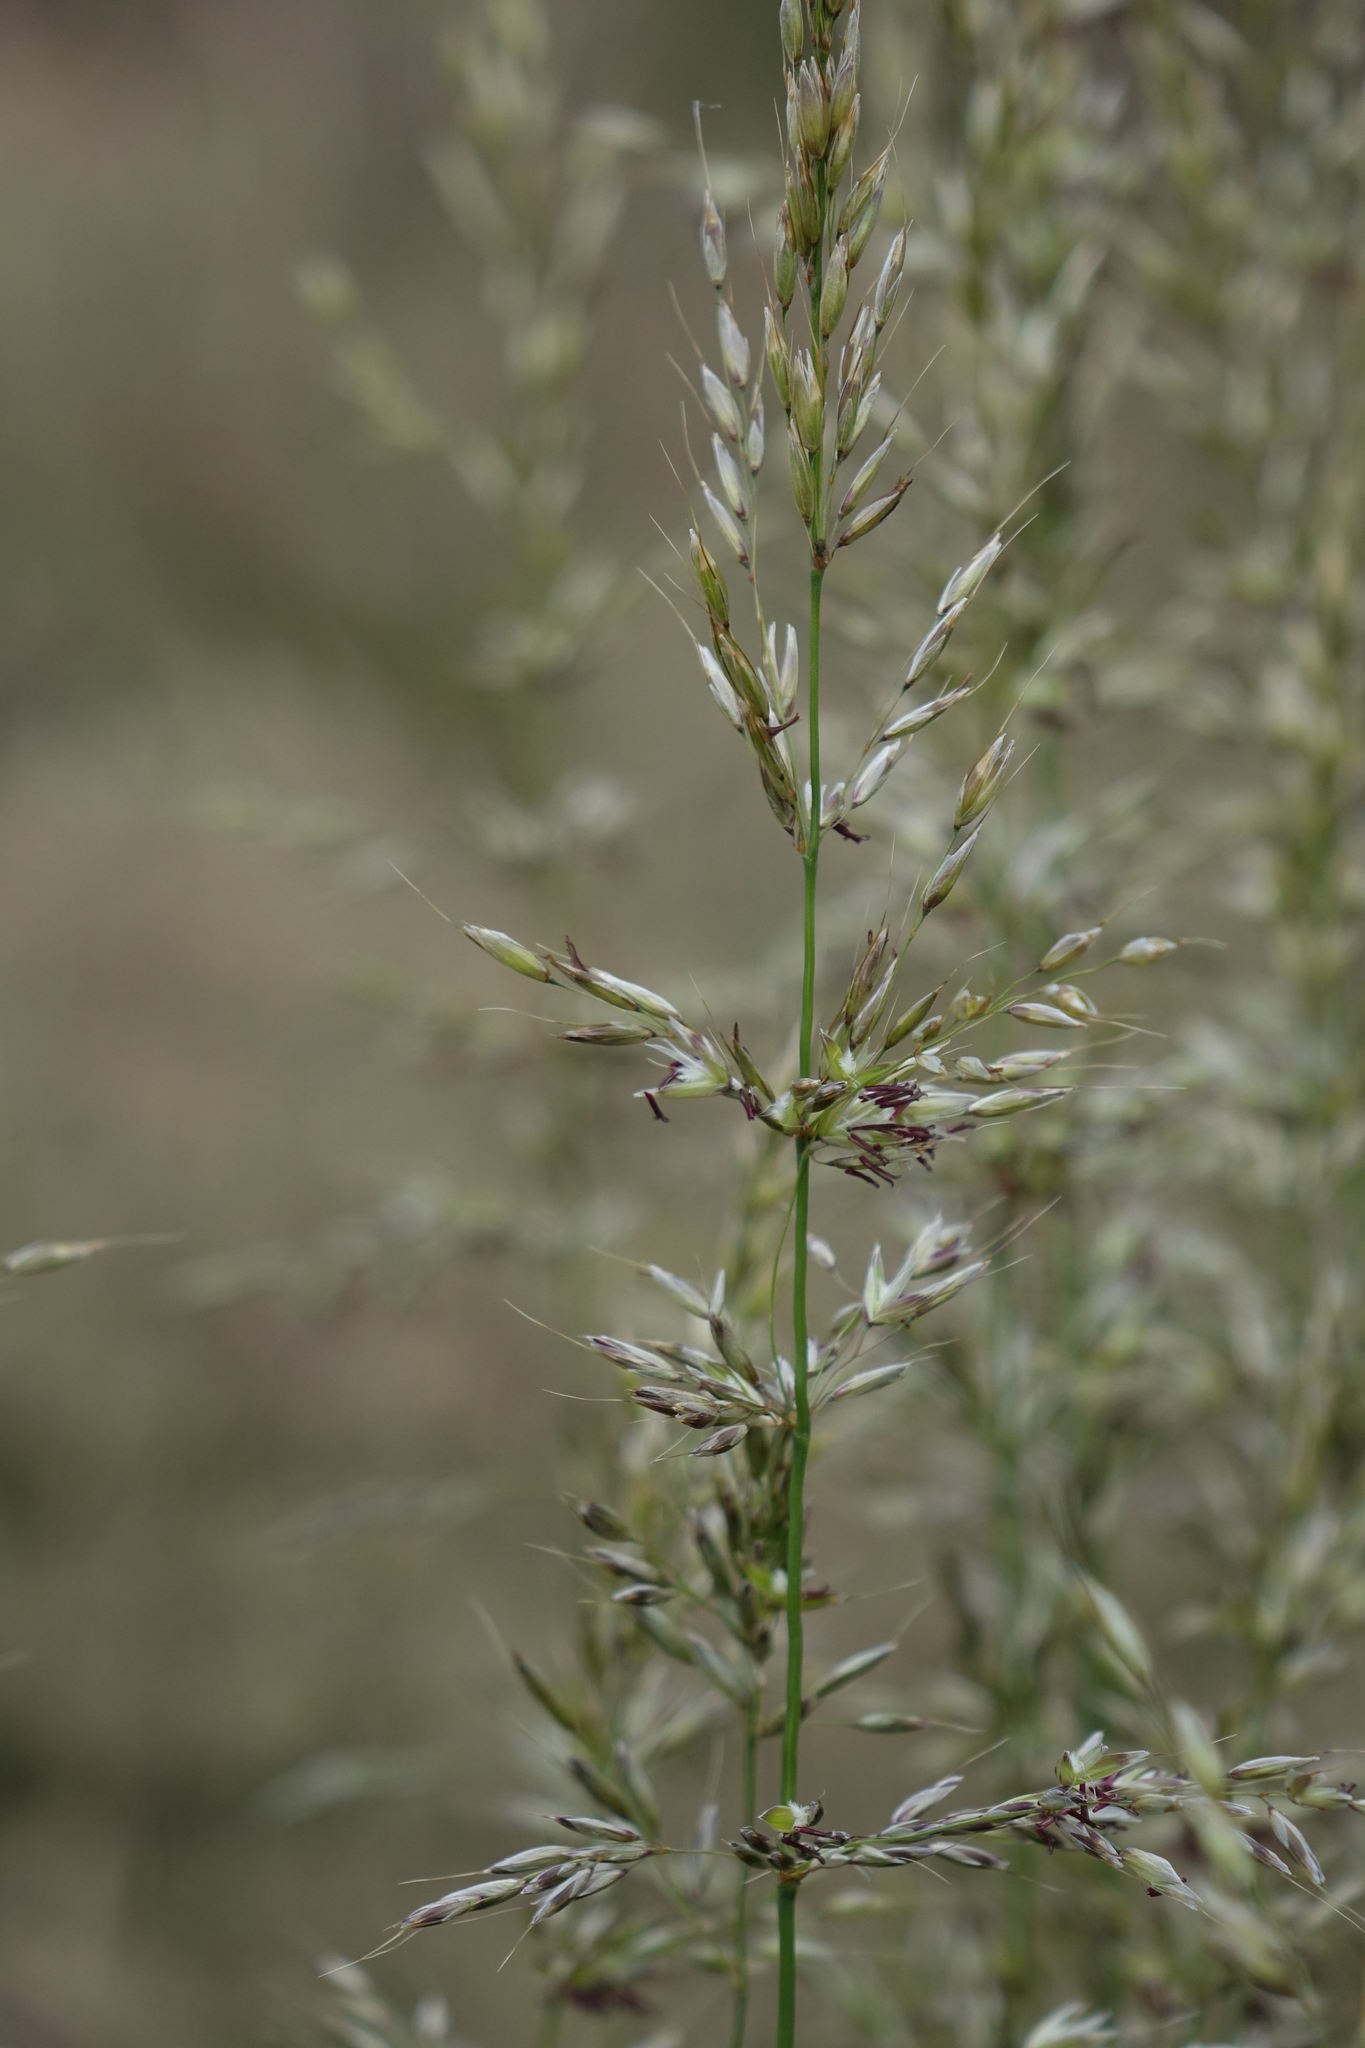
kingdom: Plantae
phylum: Tracheophyta
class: Liliopsida
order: Poales
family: Poaceae
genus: Arrhenatherum
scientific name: Arrhenatherum elatius
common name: Tall oatgrass
